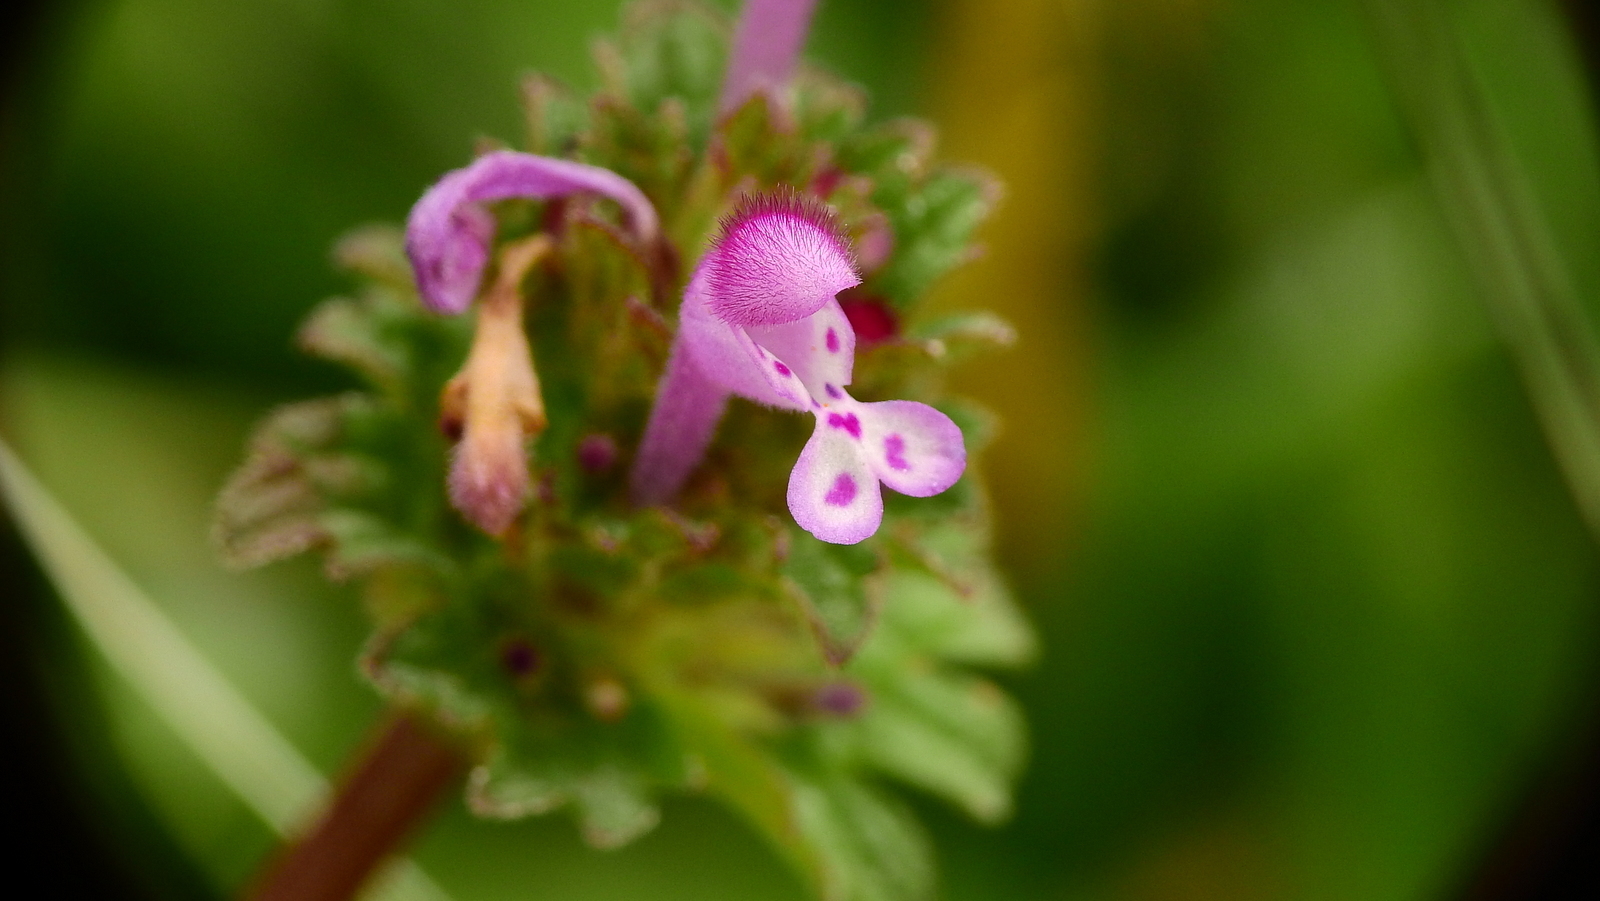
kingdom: Plantae
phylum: Tracheophyta
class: Magnoliopsida
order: Lamiales
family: Lamiaceae
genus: Lamium
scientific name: Lamium amplexicaule
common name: Henbit dead-nettle
